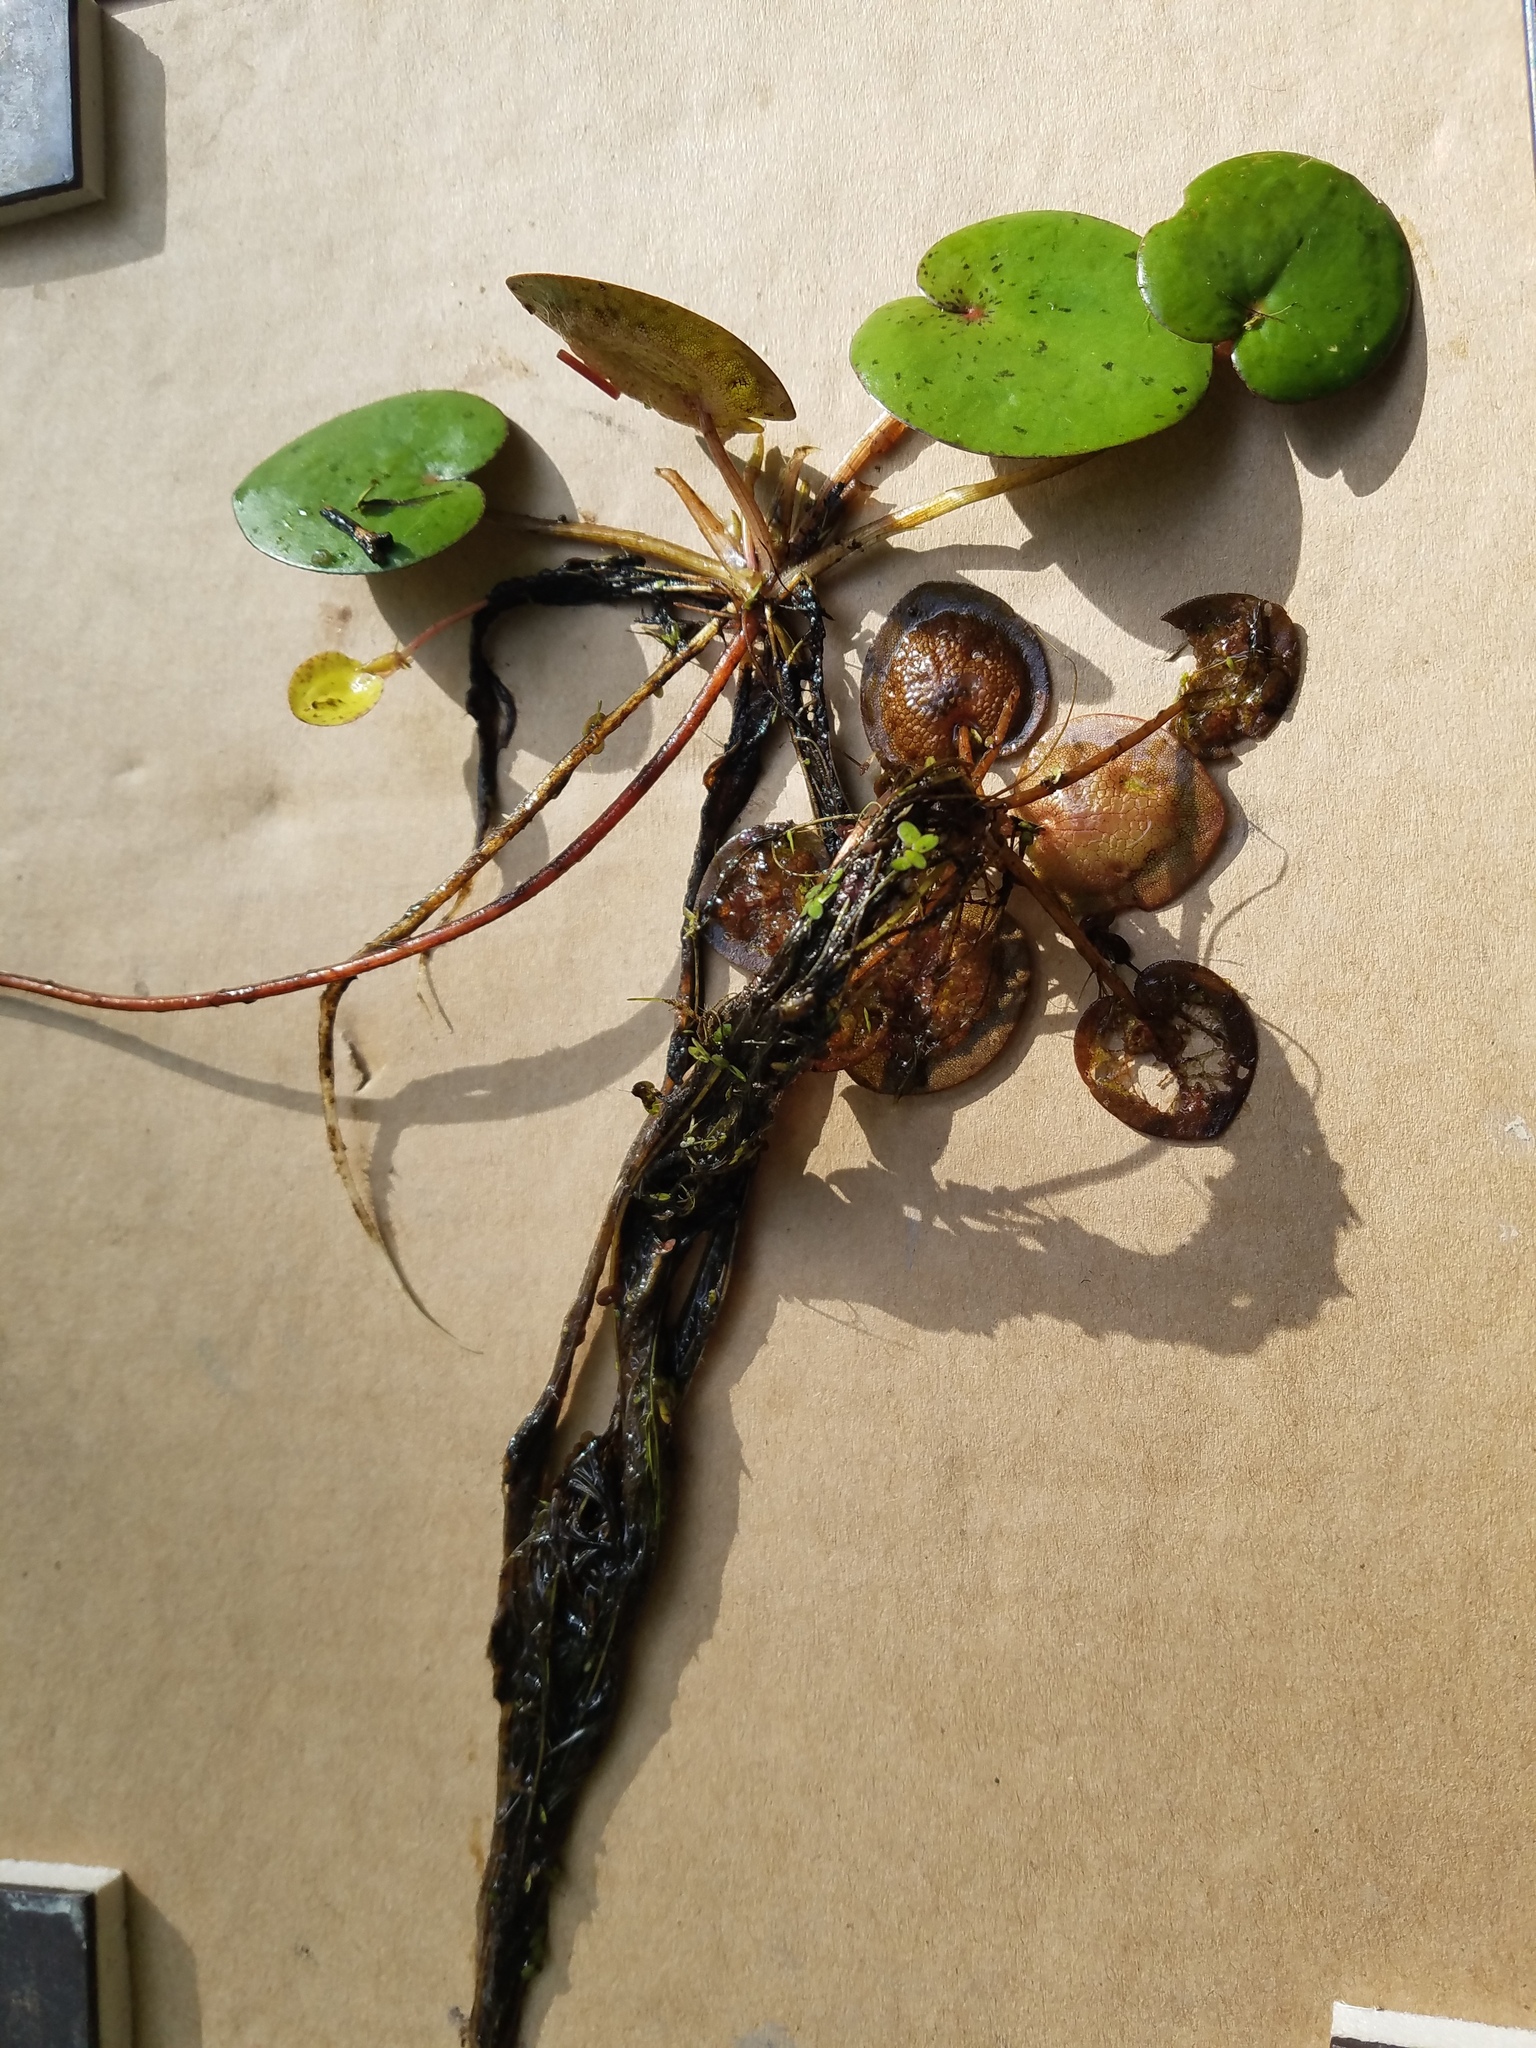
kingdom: Plantae
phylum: Tracheophyta
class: Liliopsida
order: Alismatales
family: Hydrocharitaceae
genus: Hydrocharis
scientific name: Hydrocharis spongia
